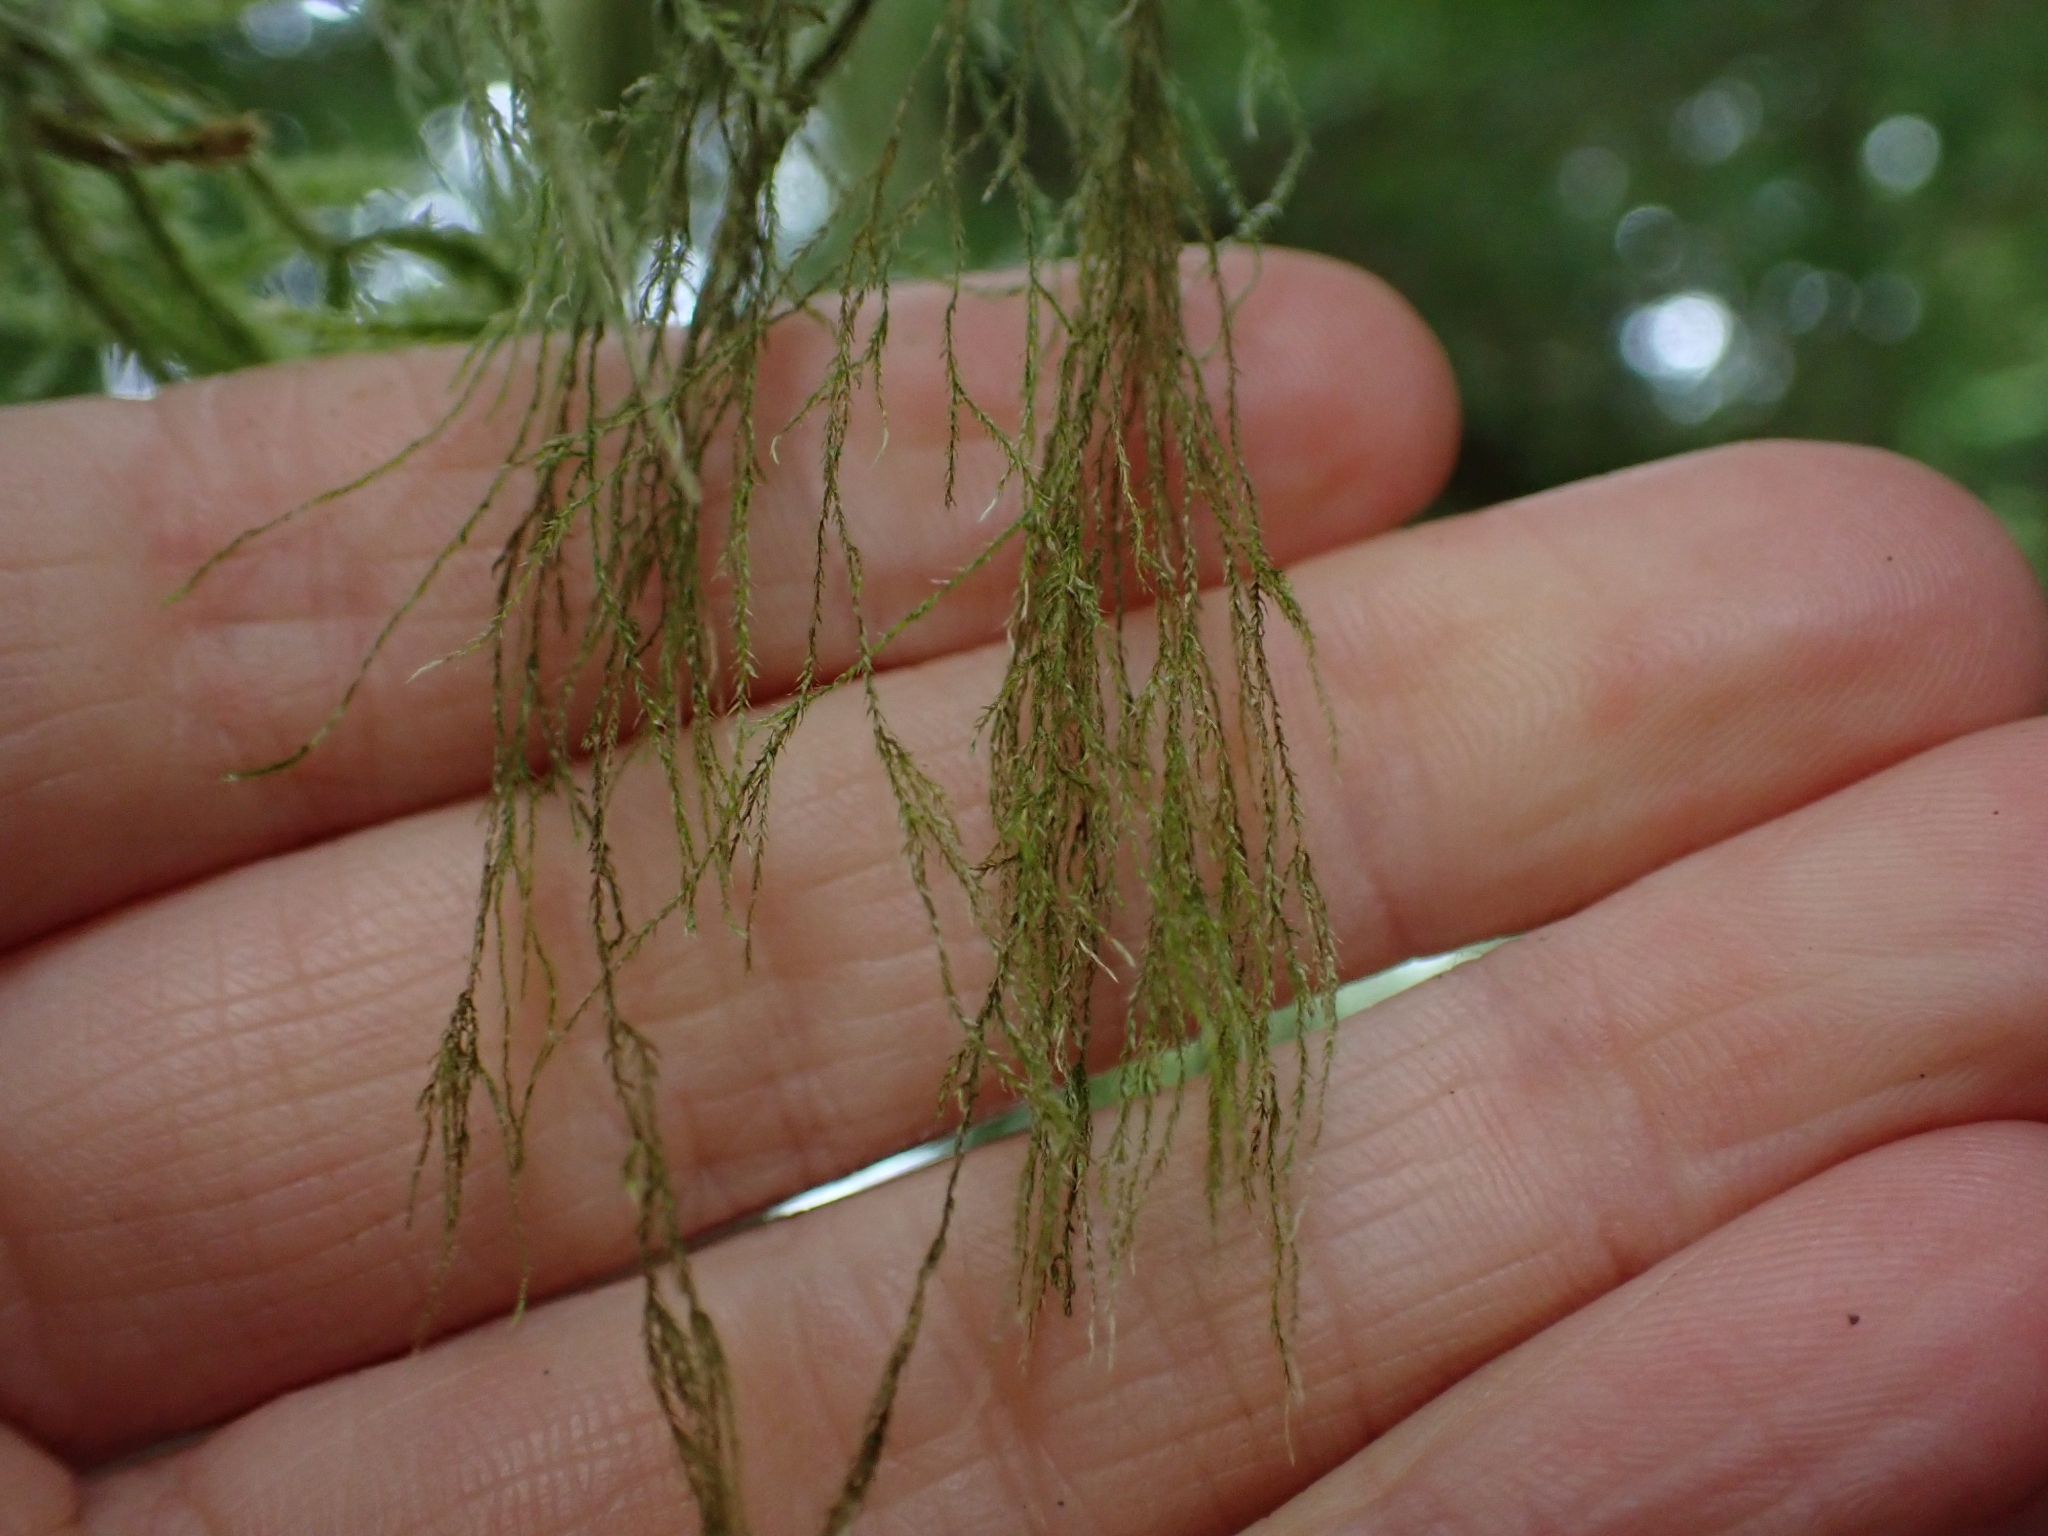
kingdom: Plantae
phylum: Bryophyta
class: Bryopsida
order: Hypnales
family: Lembophyllaceae
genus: Pseudisothecium
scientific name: Pseudisothecium stoloniferum
